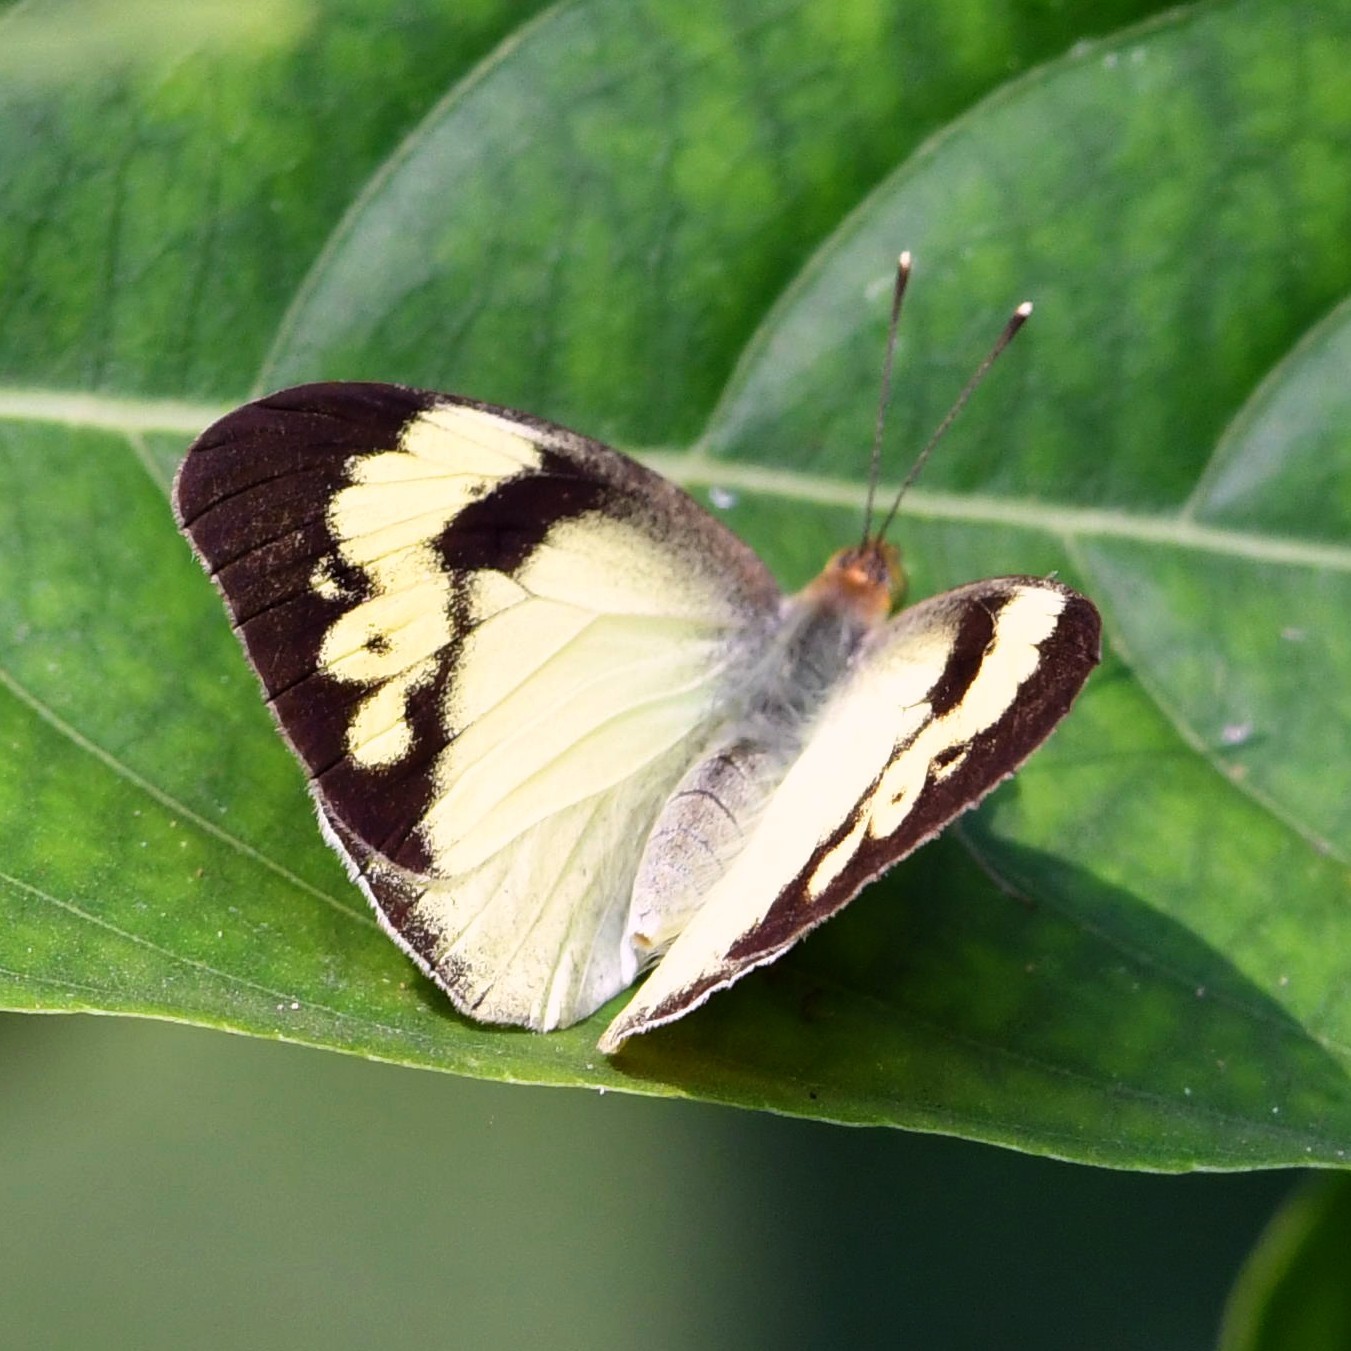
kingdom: Animalia
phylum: Arthropoda
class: Insecta
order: Lepidoptera
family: Pieridae
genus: Ixias
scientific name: Ixias pyrene
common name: Yellow orange tip
